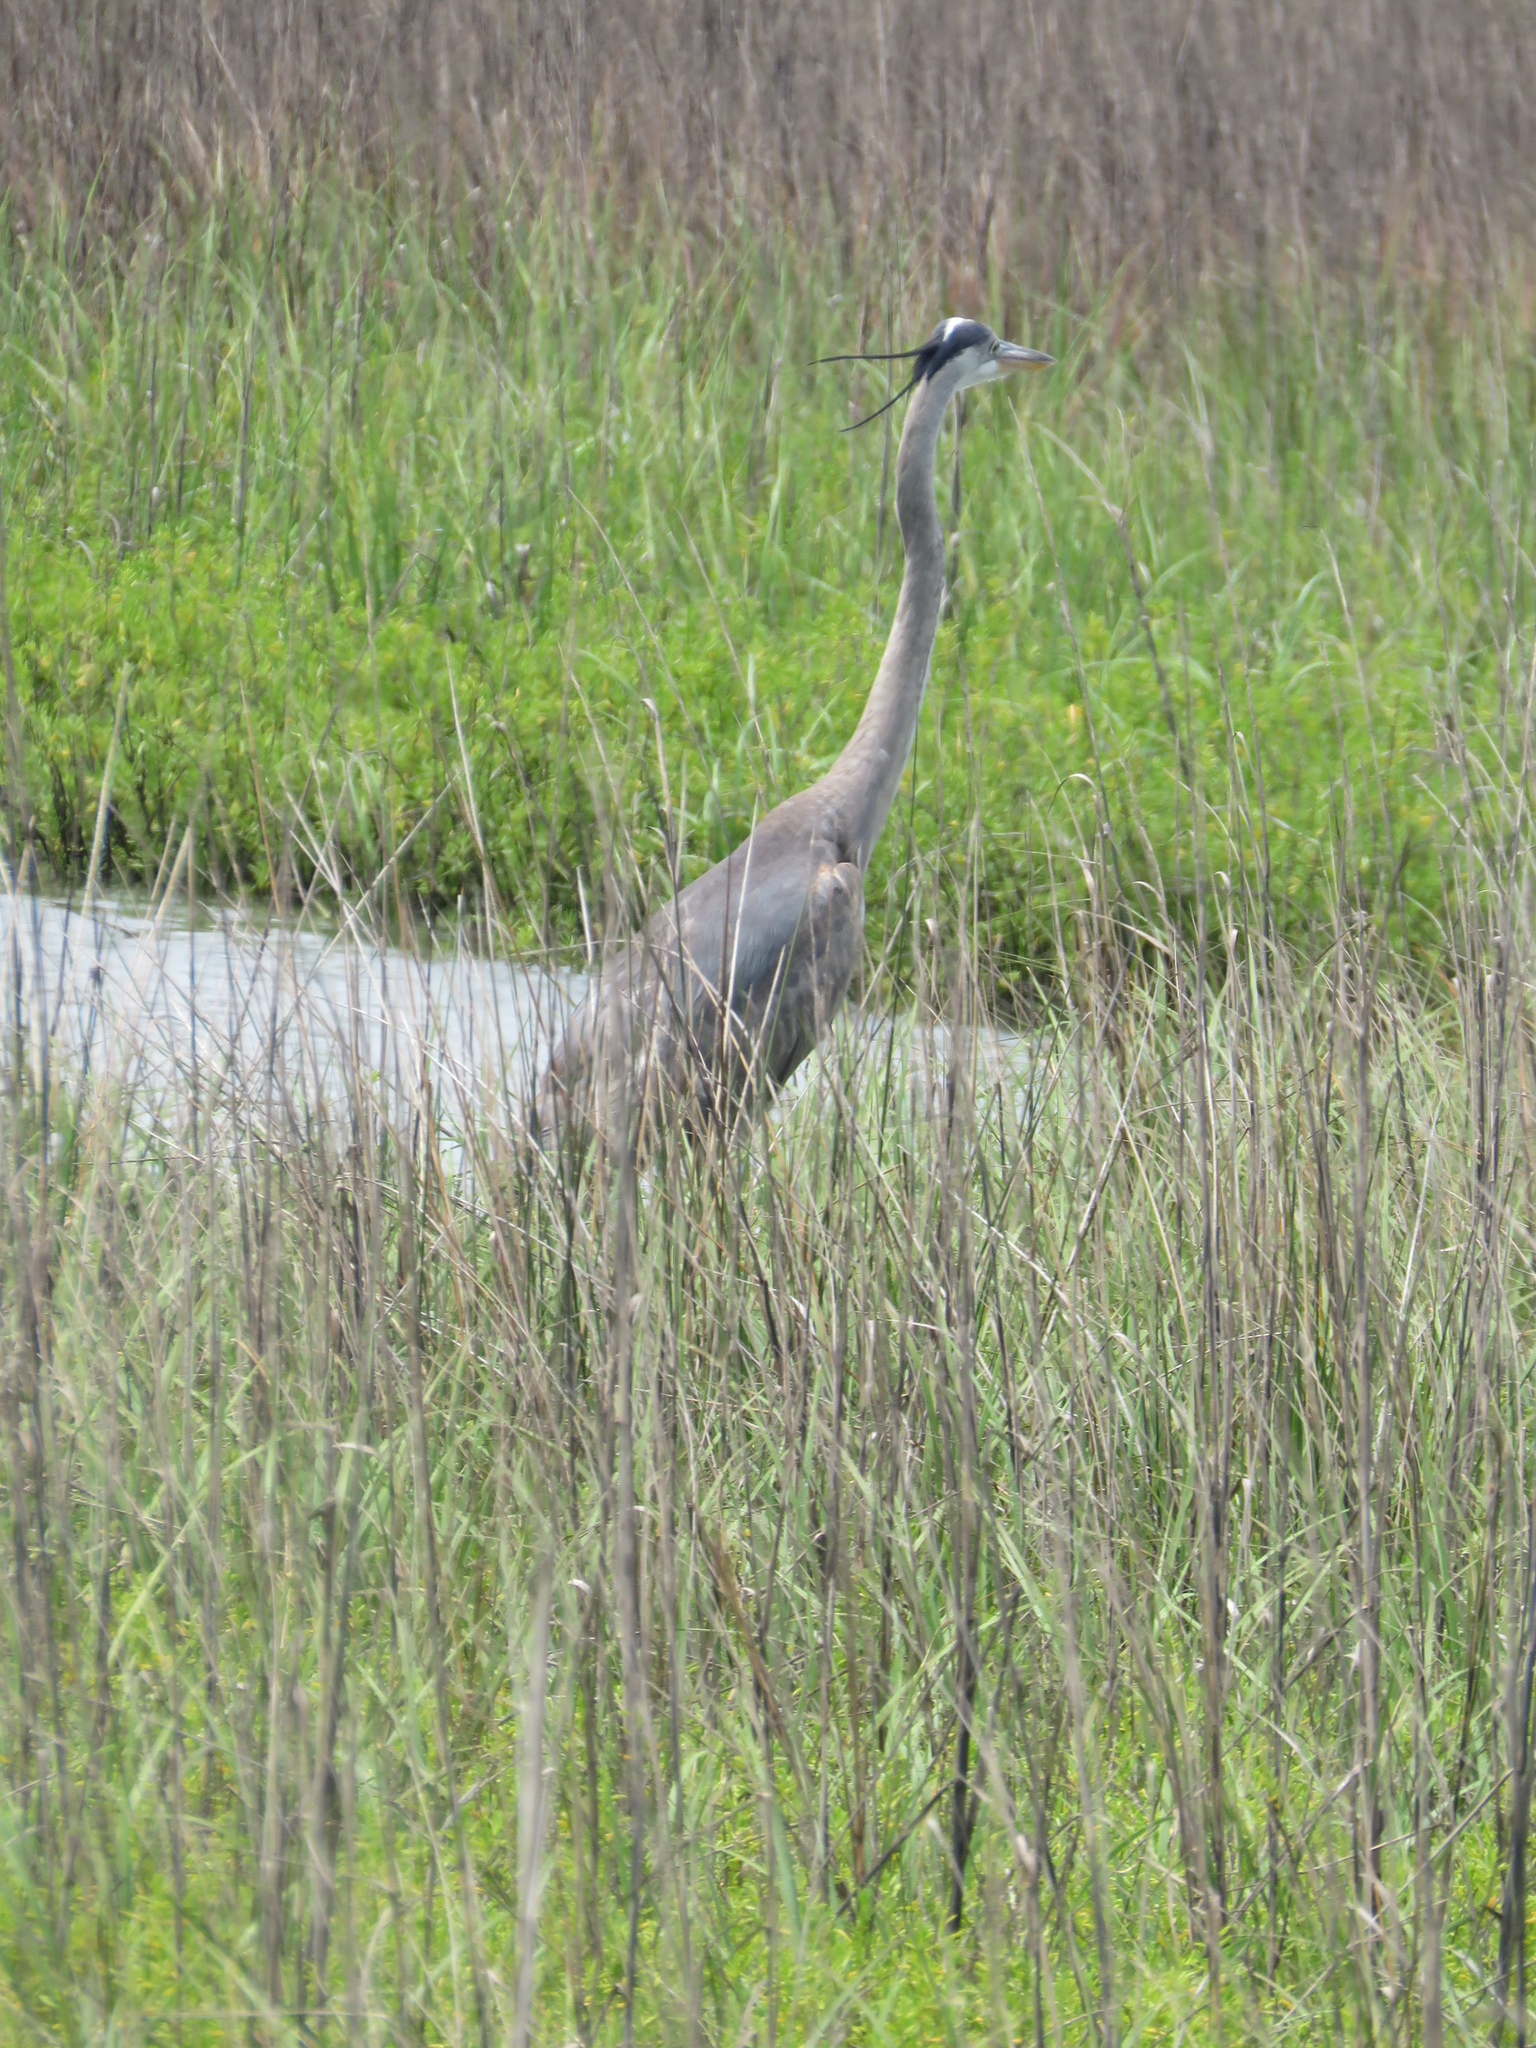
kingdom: Animalia
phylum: Chordata
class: Aves
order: Pelecaniformes
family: Ardeidae
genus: Ardea
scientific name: Ardea herodias
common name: Great blue heron
